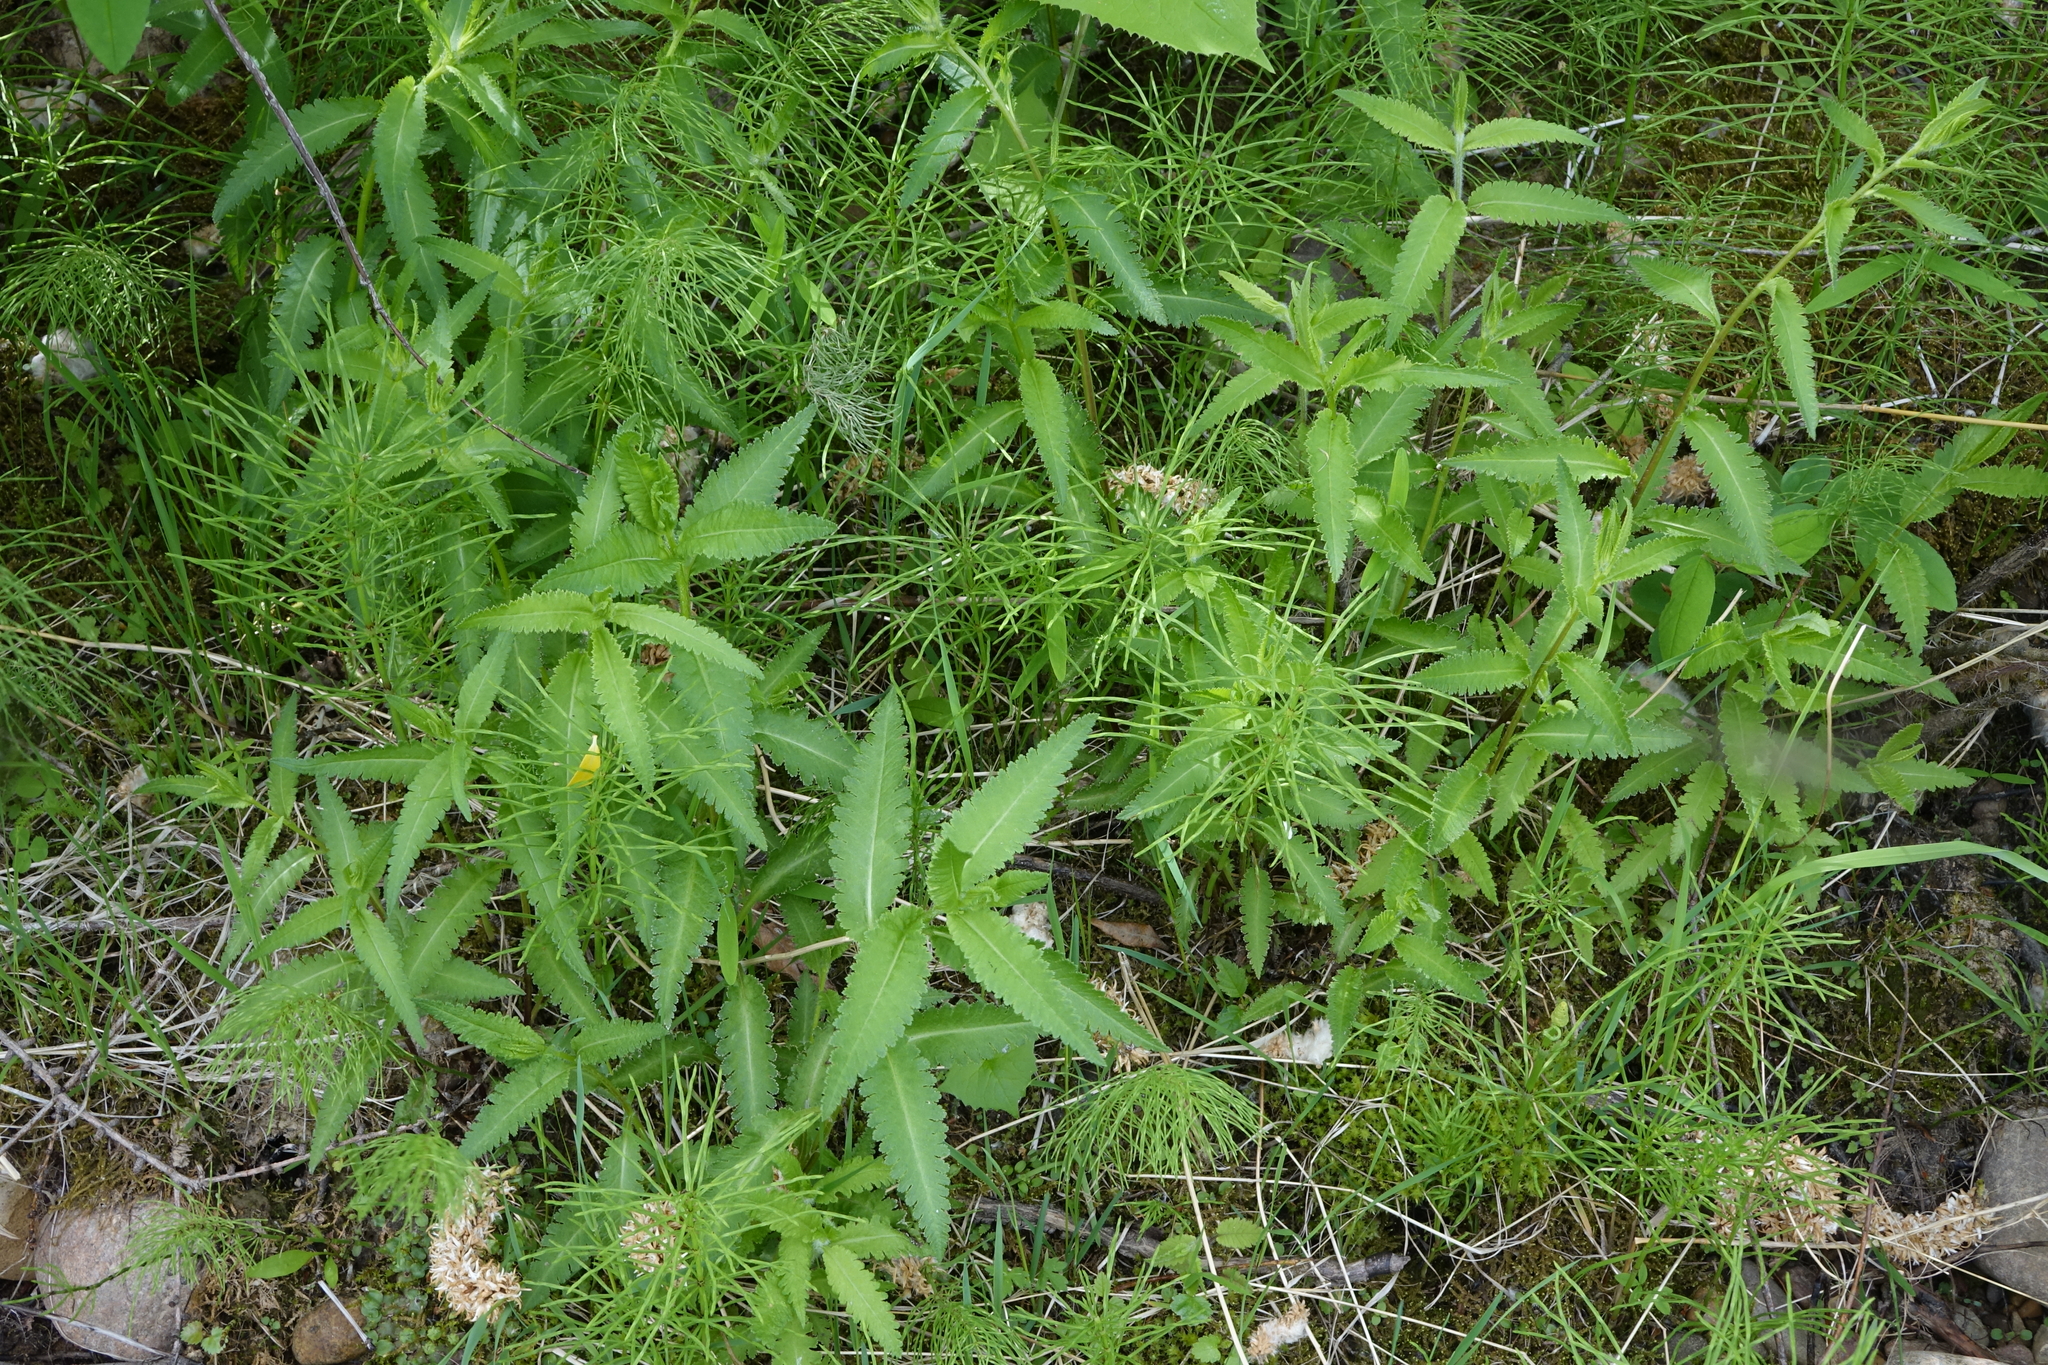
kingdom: Plantae
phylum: Tracheophyta
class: Magnoliopsida
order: Lamiales
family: Orobanchaceae
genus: Pedicularis
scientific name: Pedicularis resupinata
